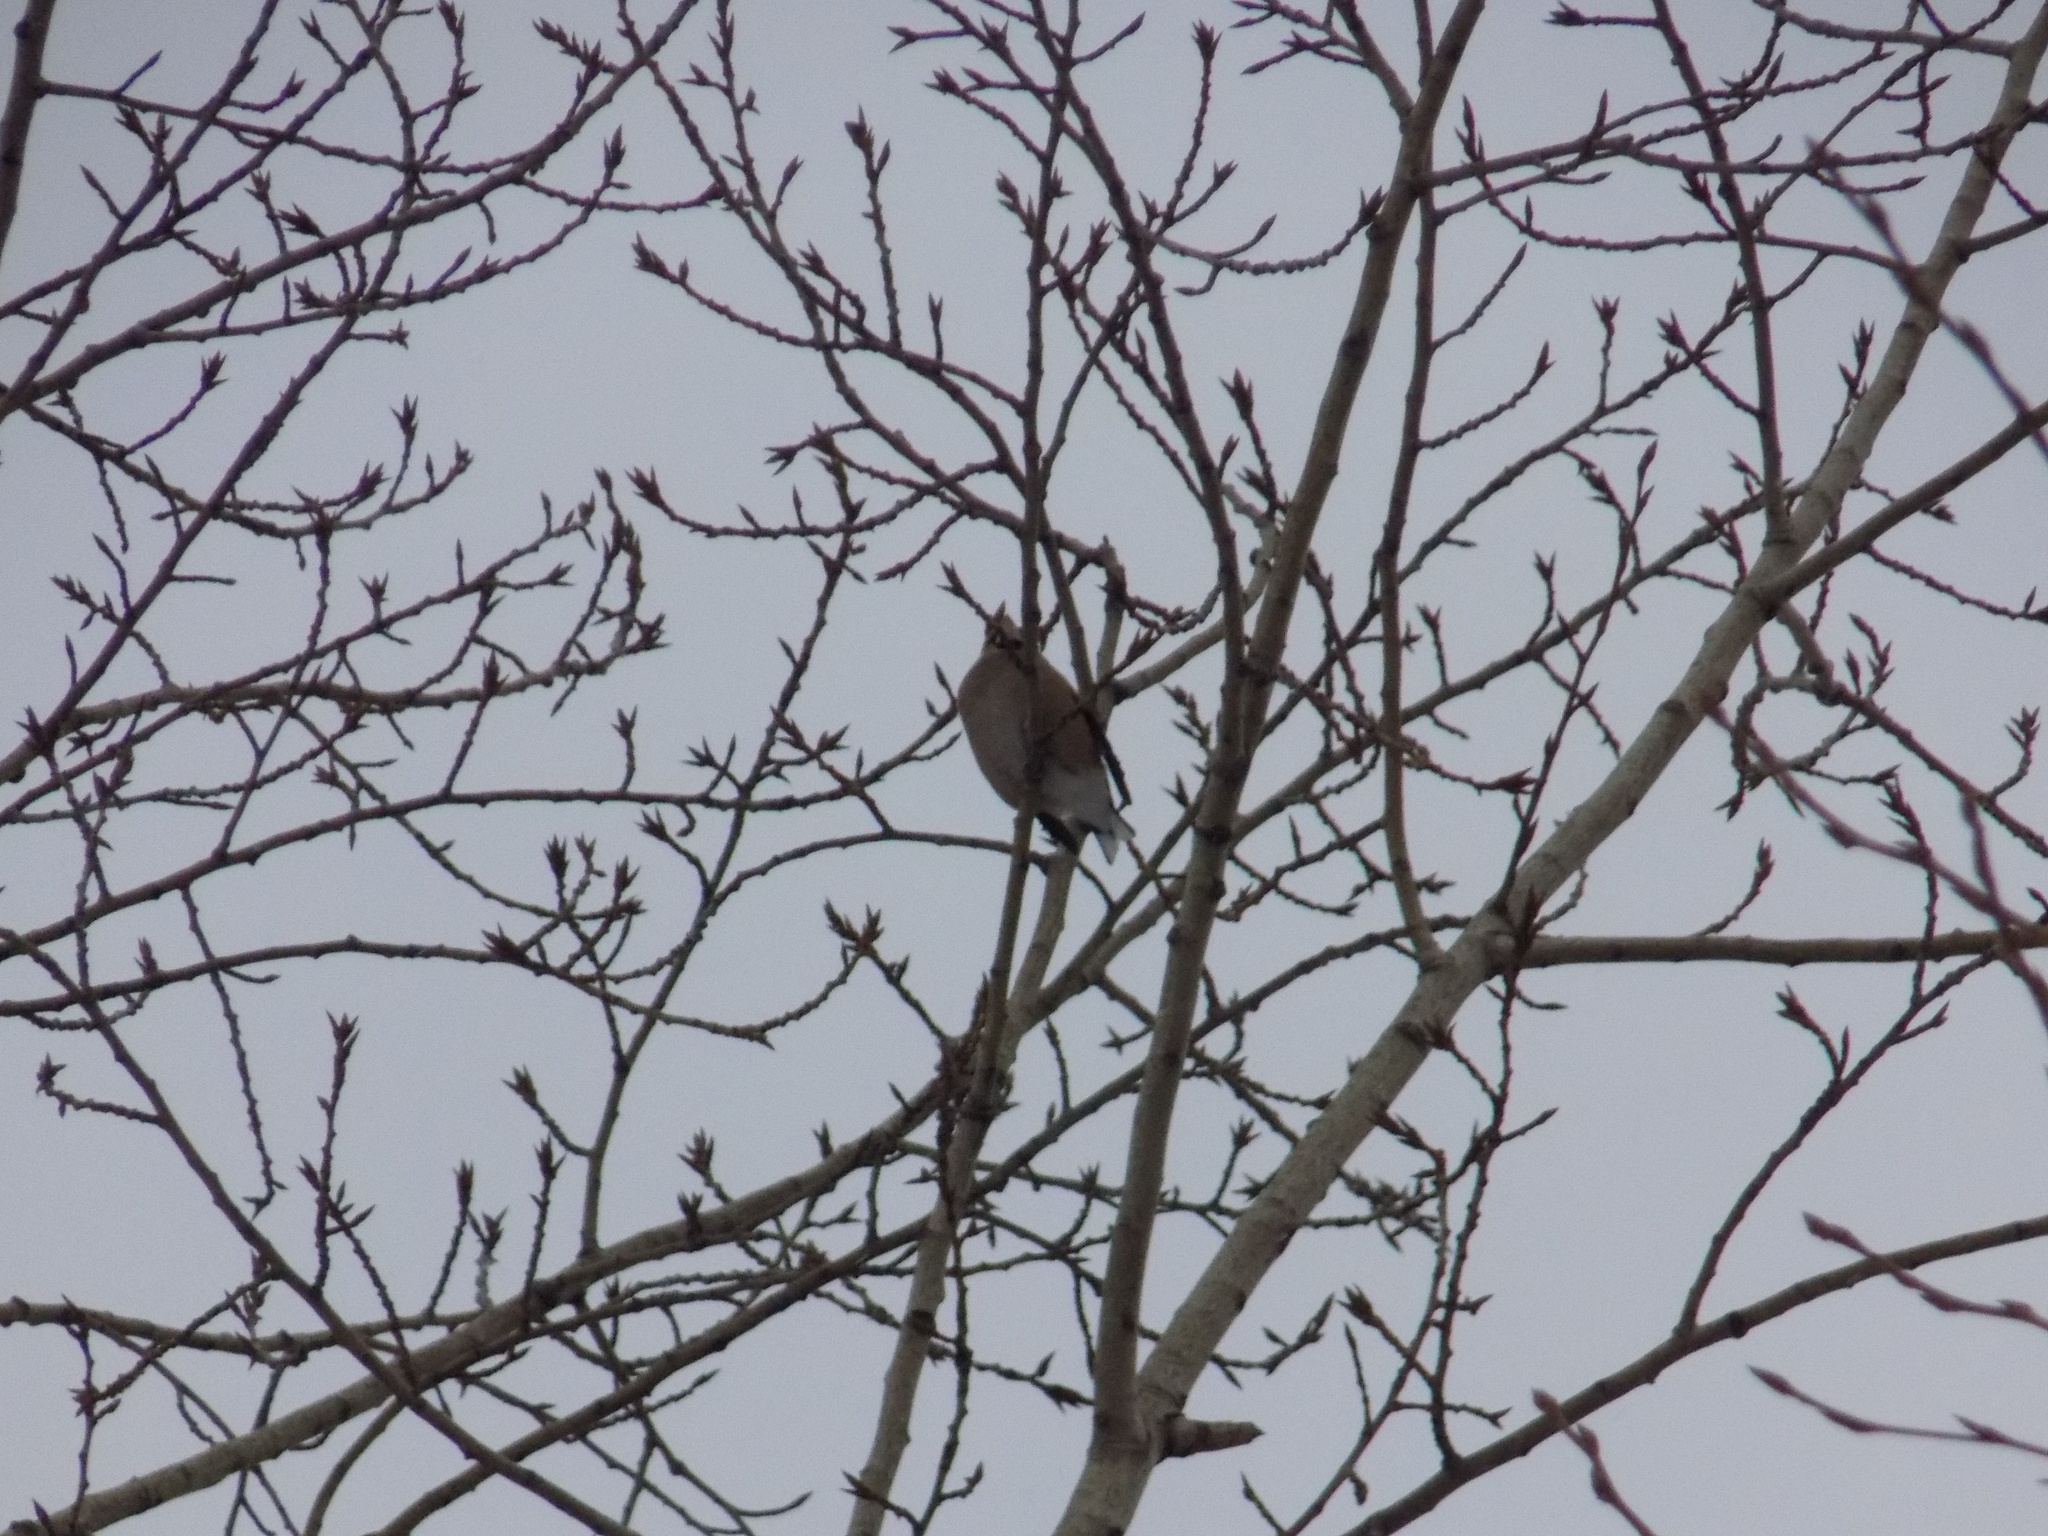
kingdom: Animalia
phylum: Chordata
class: Aves
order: Passeriformes
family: Fringillidae
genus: Coccothraustes
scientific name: Coccothraustes coccothraustes
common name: Hawfinch
